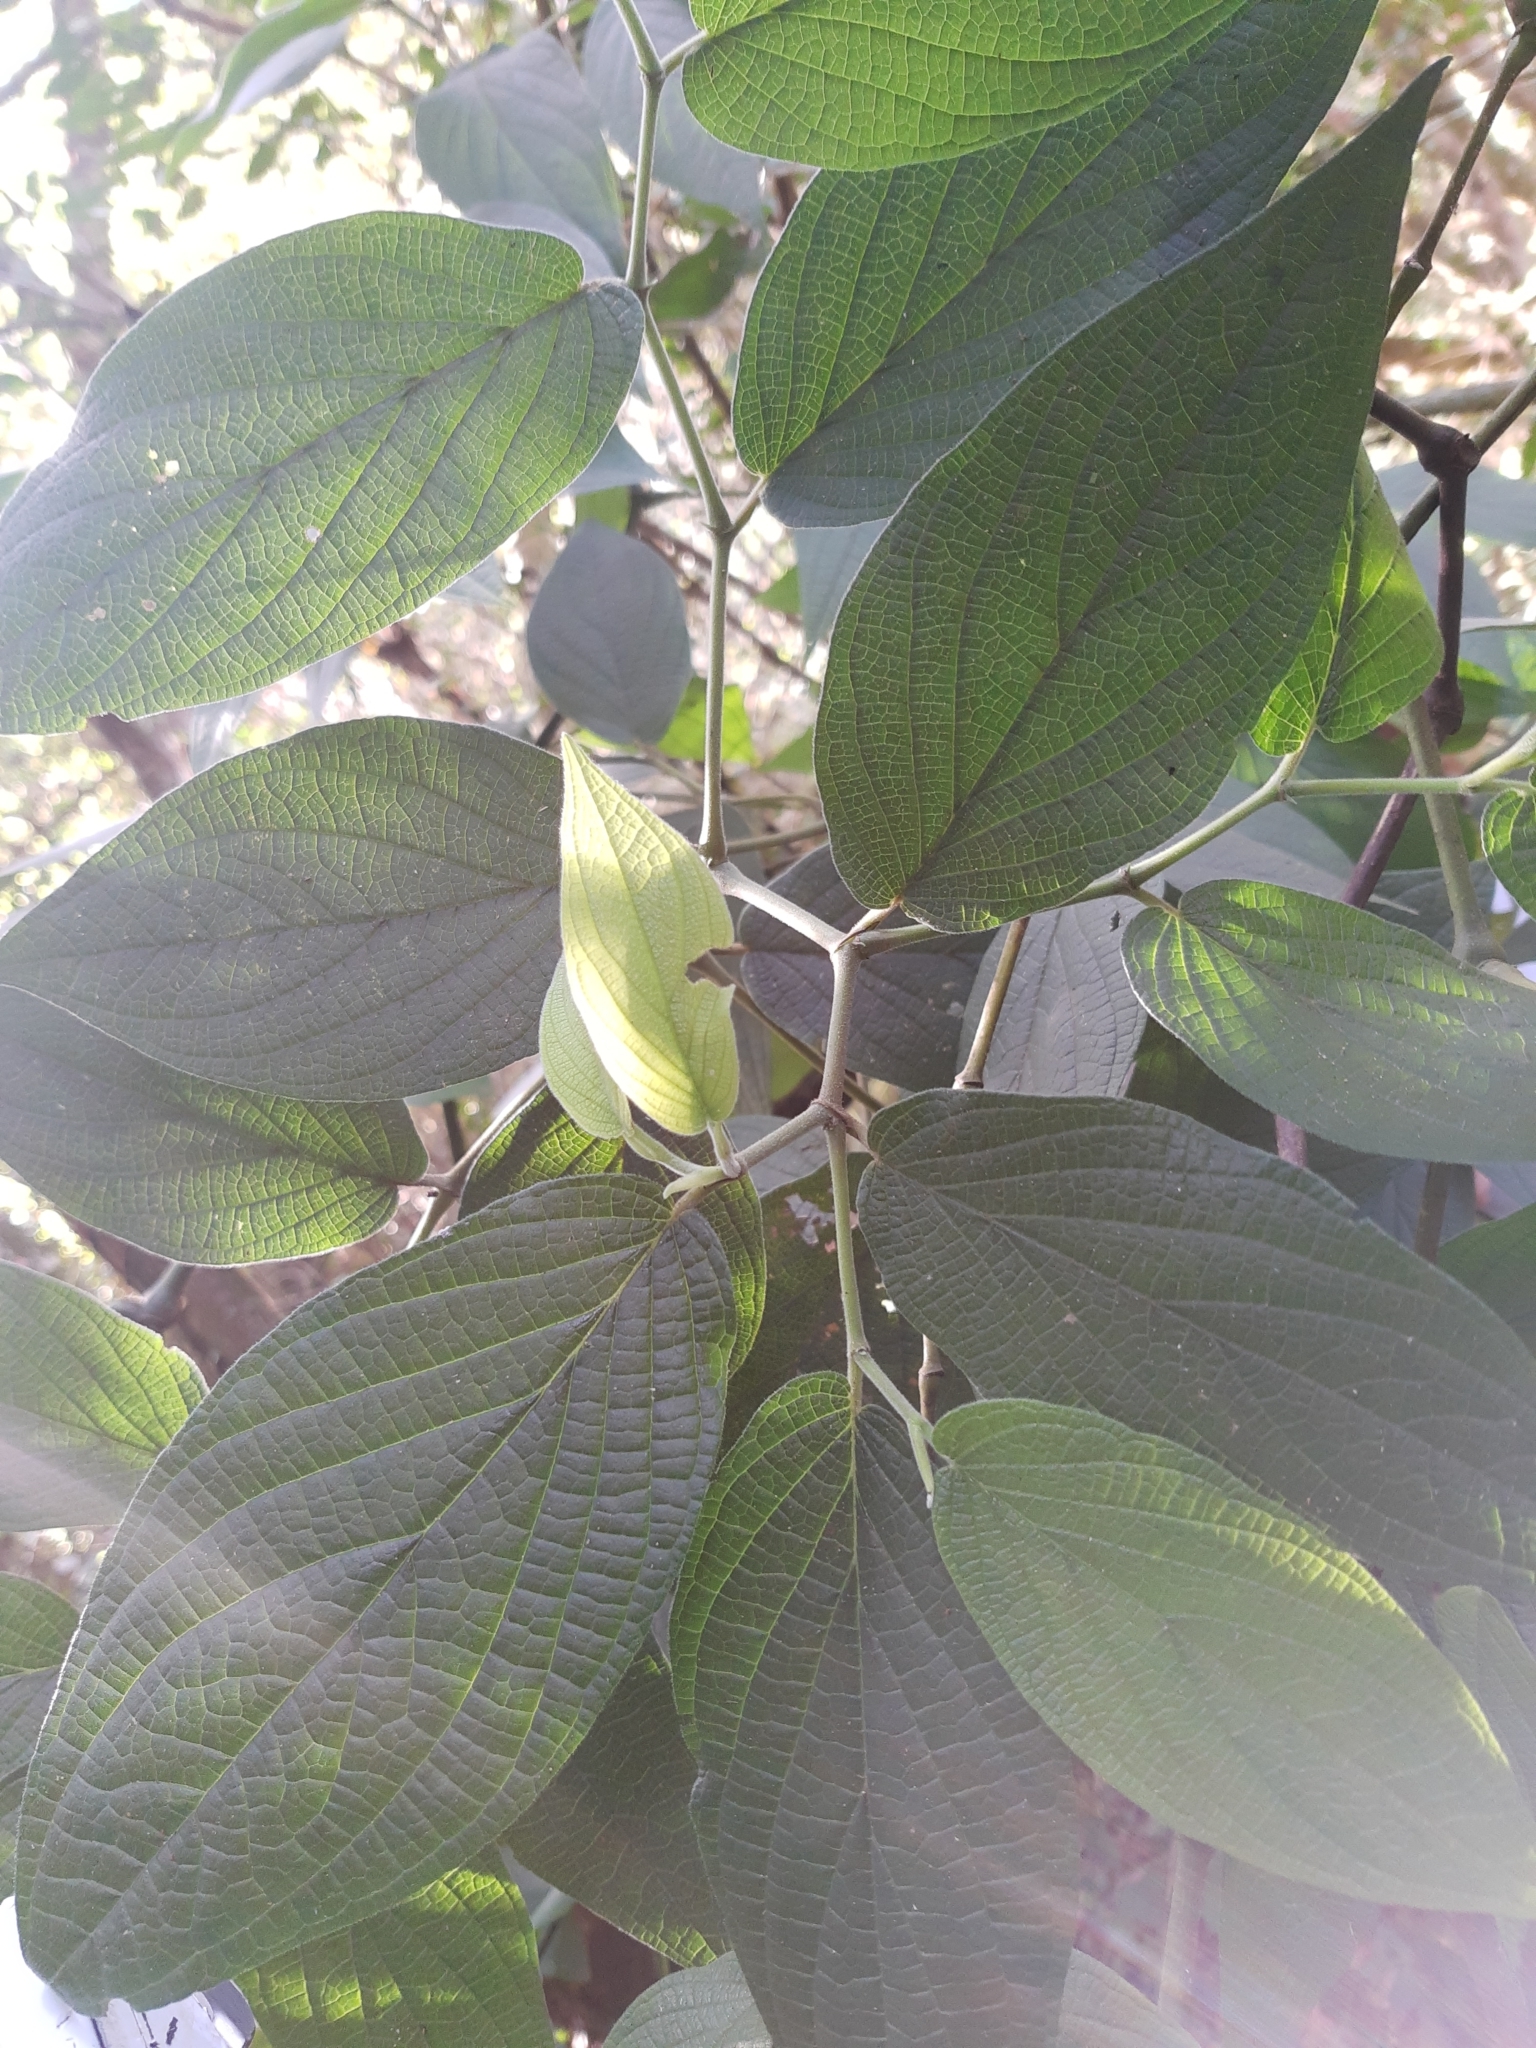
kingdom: Plantae
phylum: Tracheophyta
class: Magnoliopsida
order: Piperales
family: Piperaceae
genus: Piper
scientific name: Piper mollicomum
